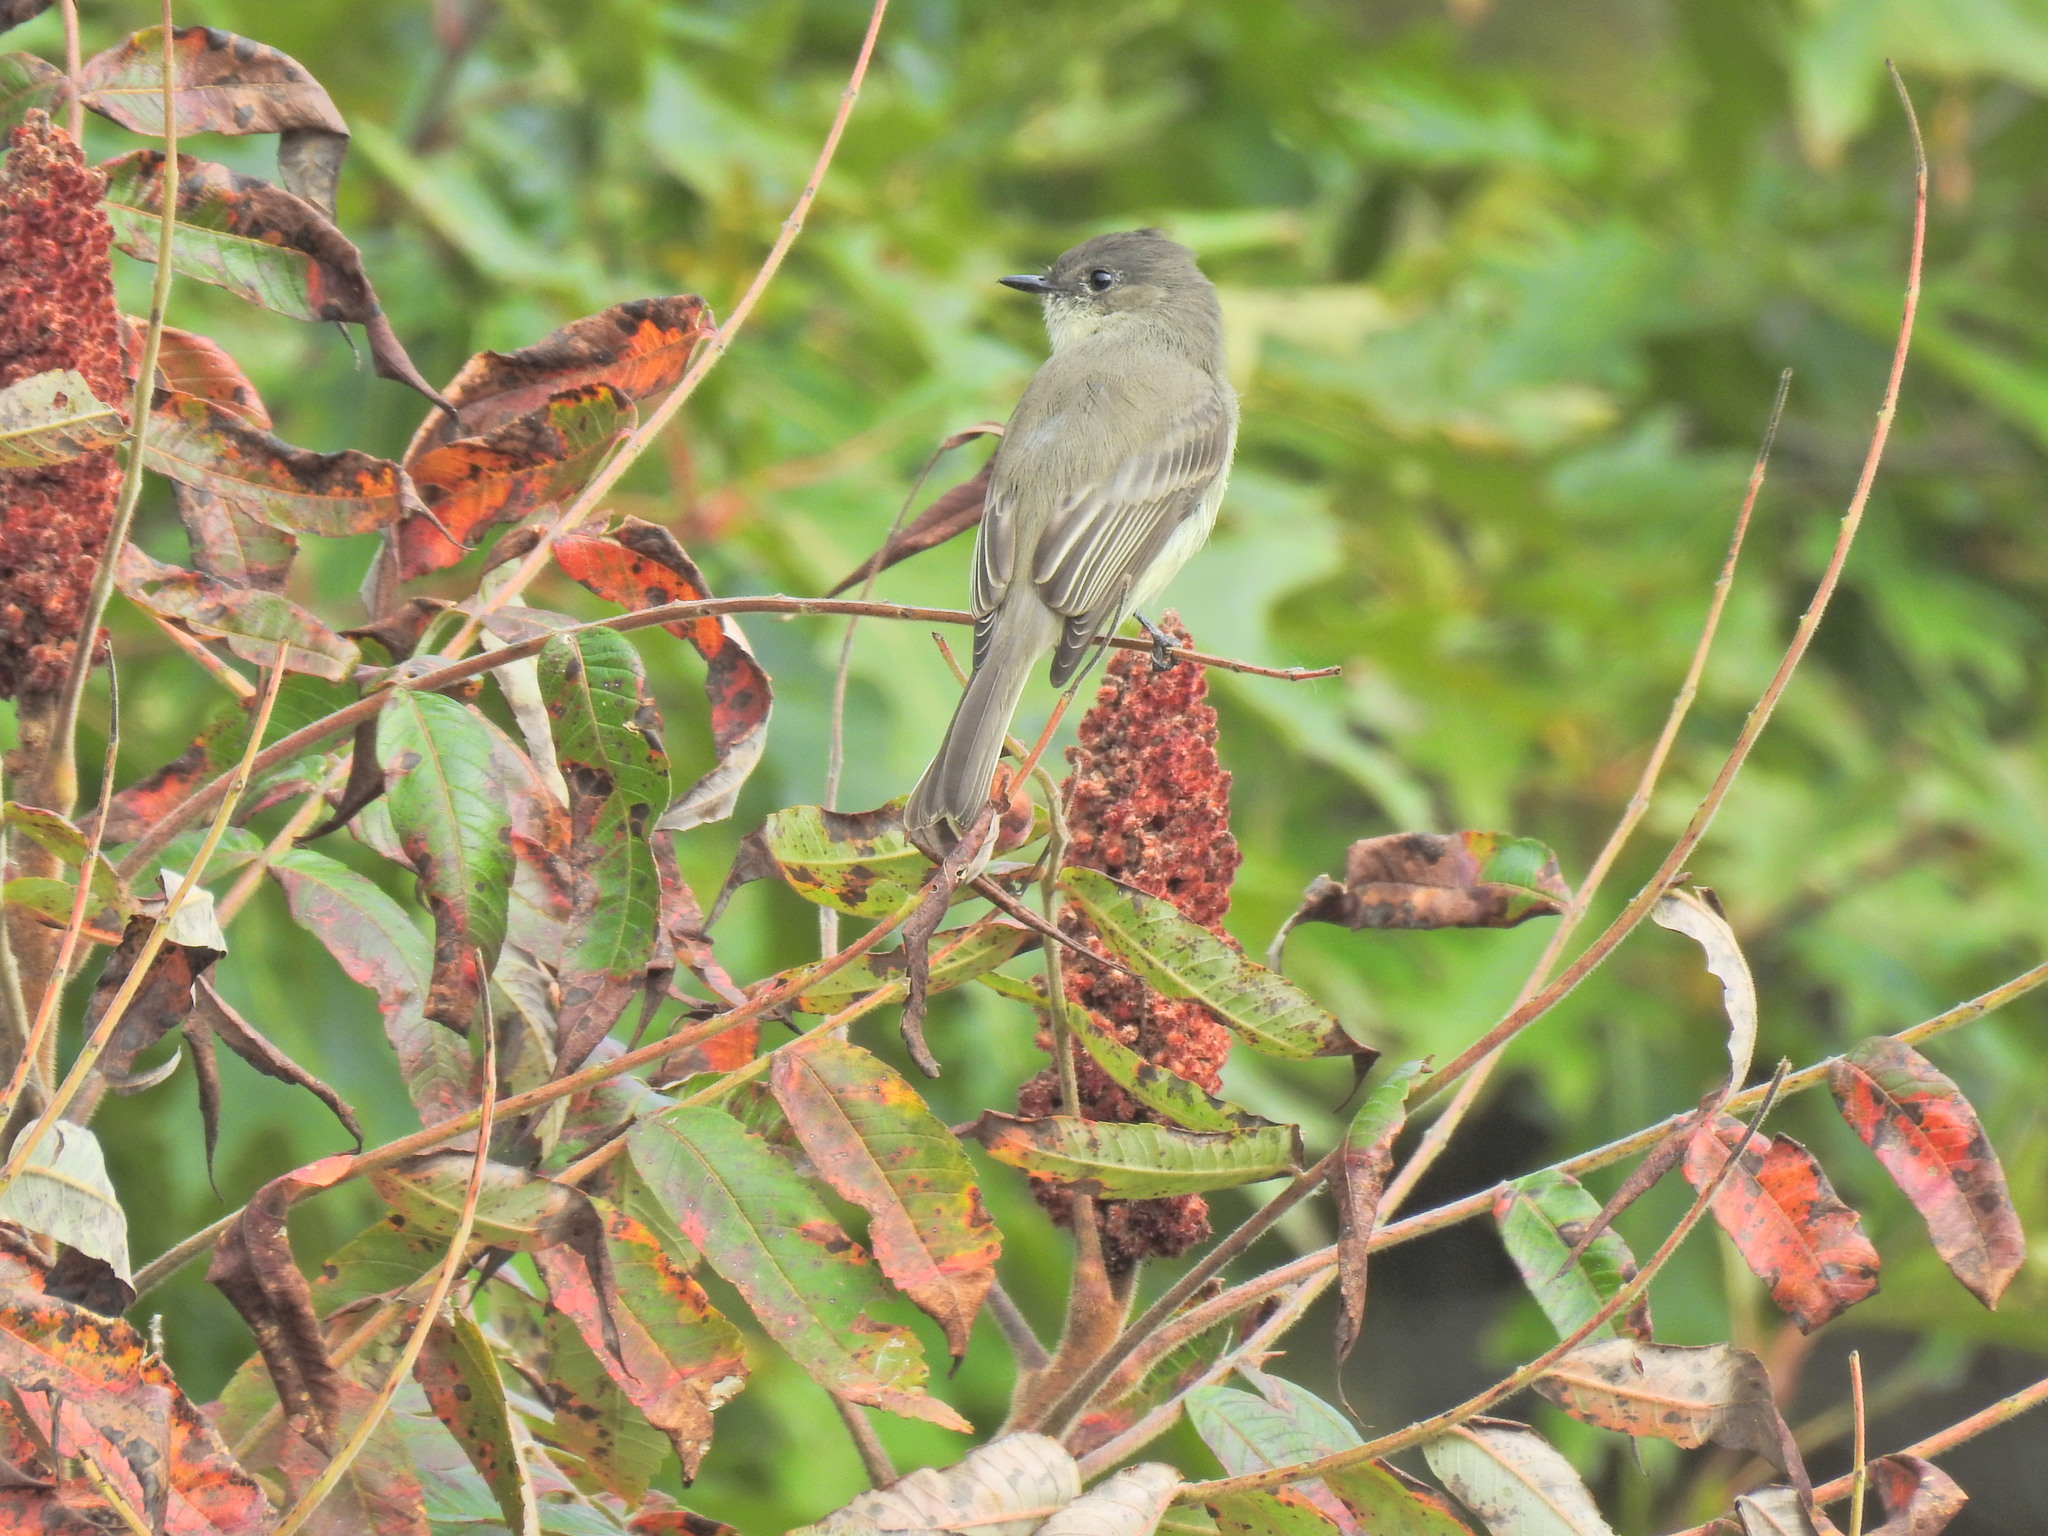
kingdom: Animalia
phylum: Chordata
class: Aves
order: Passeriformes
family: Tyrannidae
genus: Sayornis
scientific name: Sayornis phoebe
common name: Eastern phoebe
